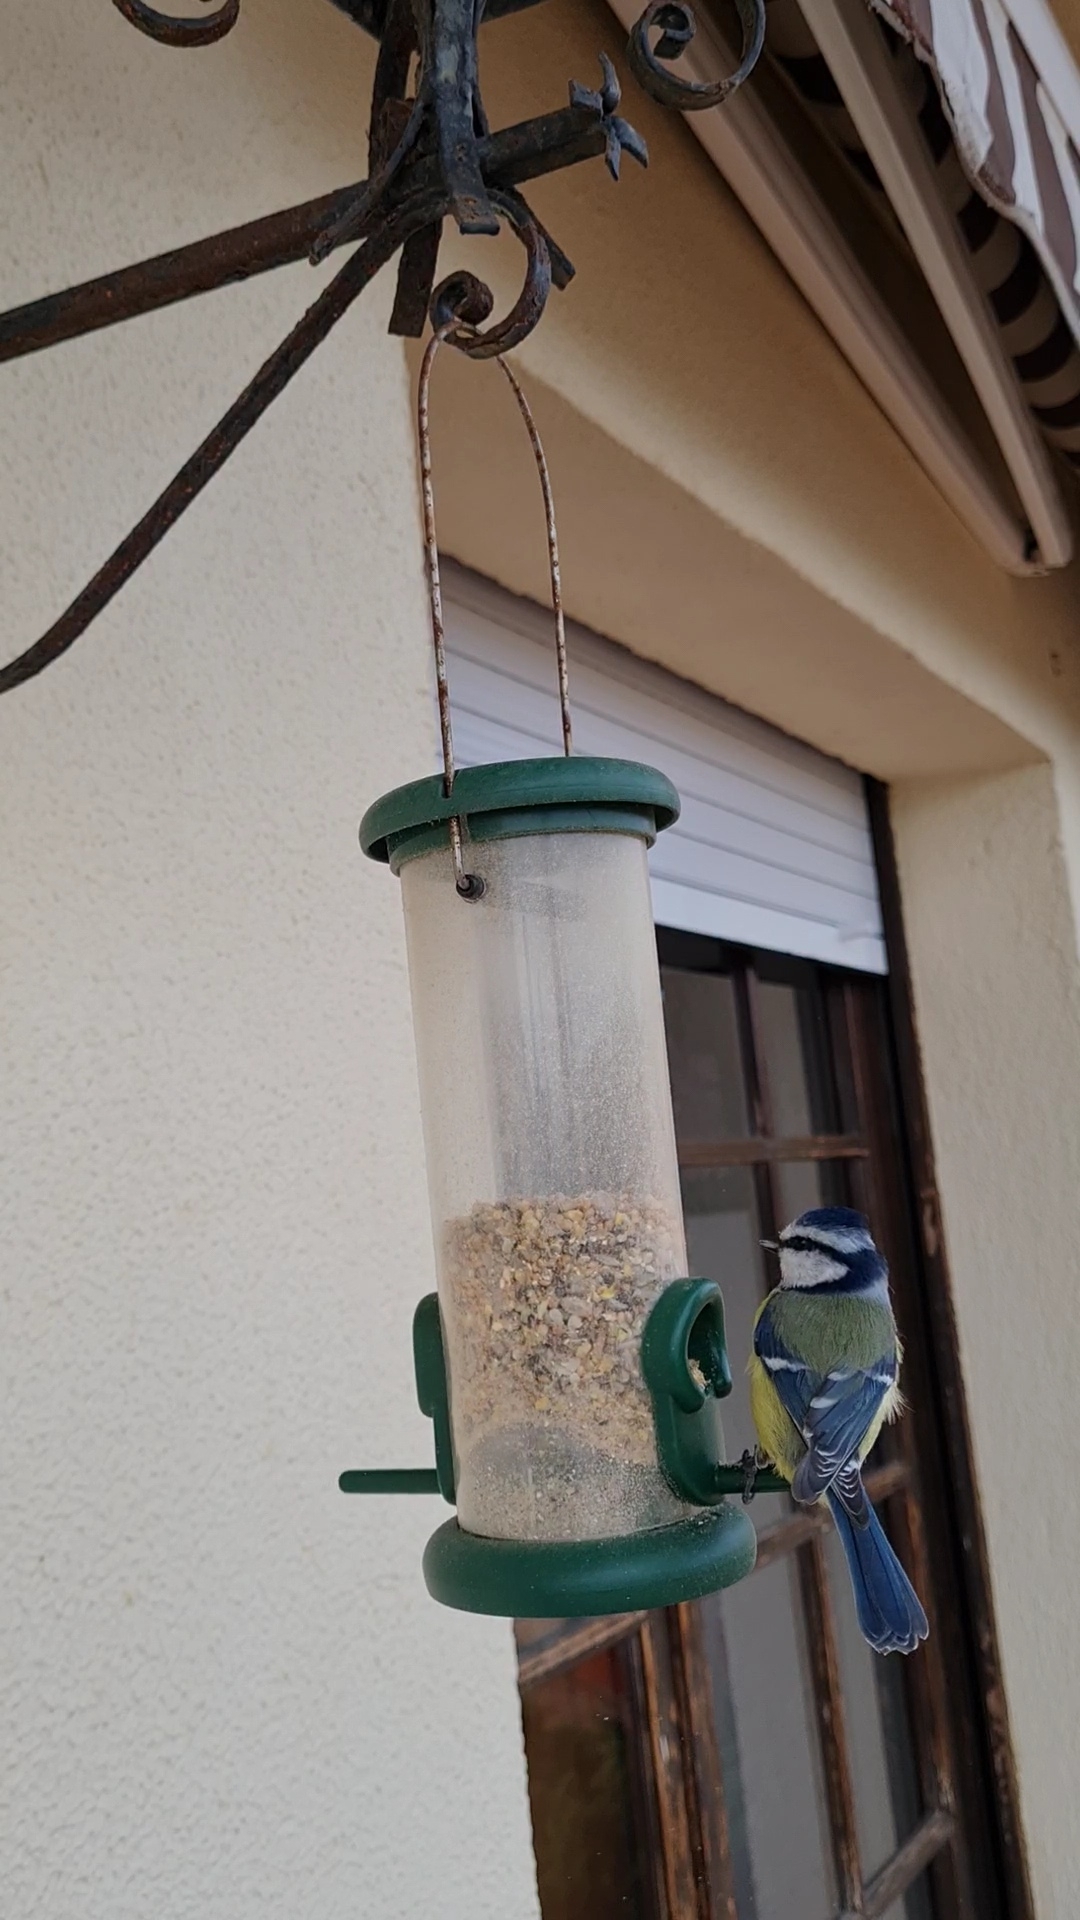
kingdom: Animalia
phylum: Chordata
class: Aves
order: Passeriformes
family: Paridae
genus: Cyanistes
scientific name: Cyanistes caeruleus
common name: Eurasian blue tit
